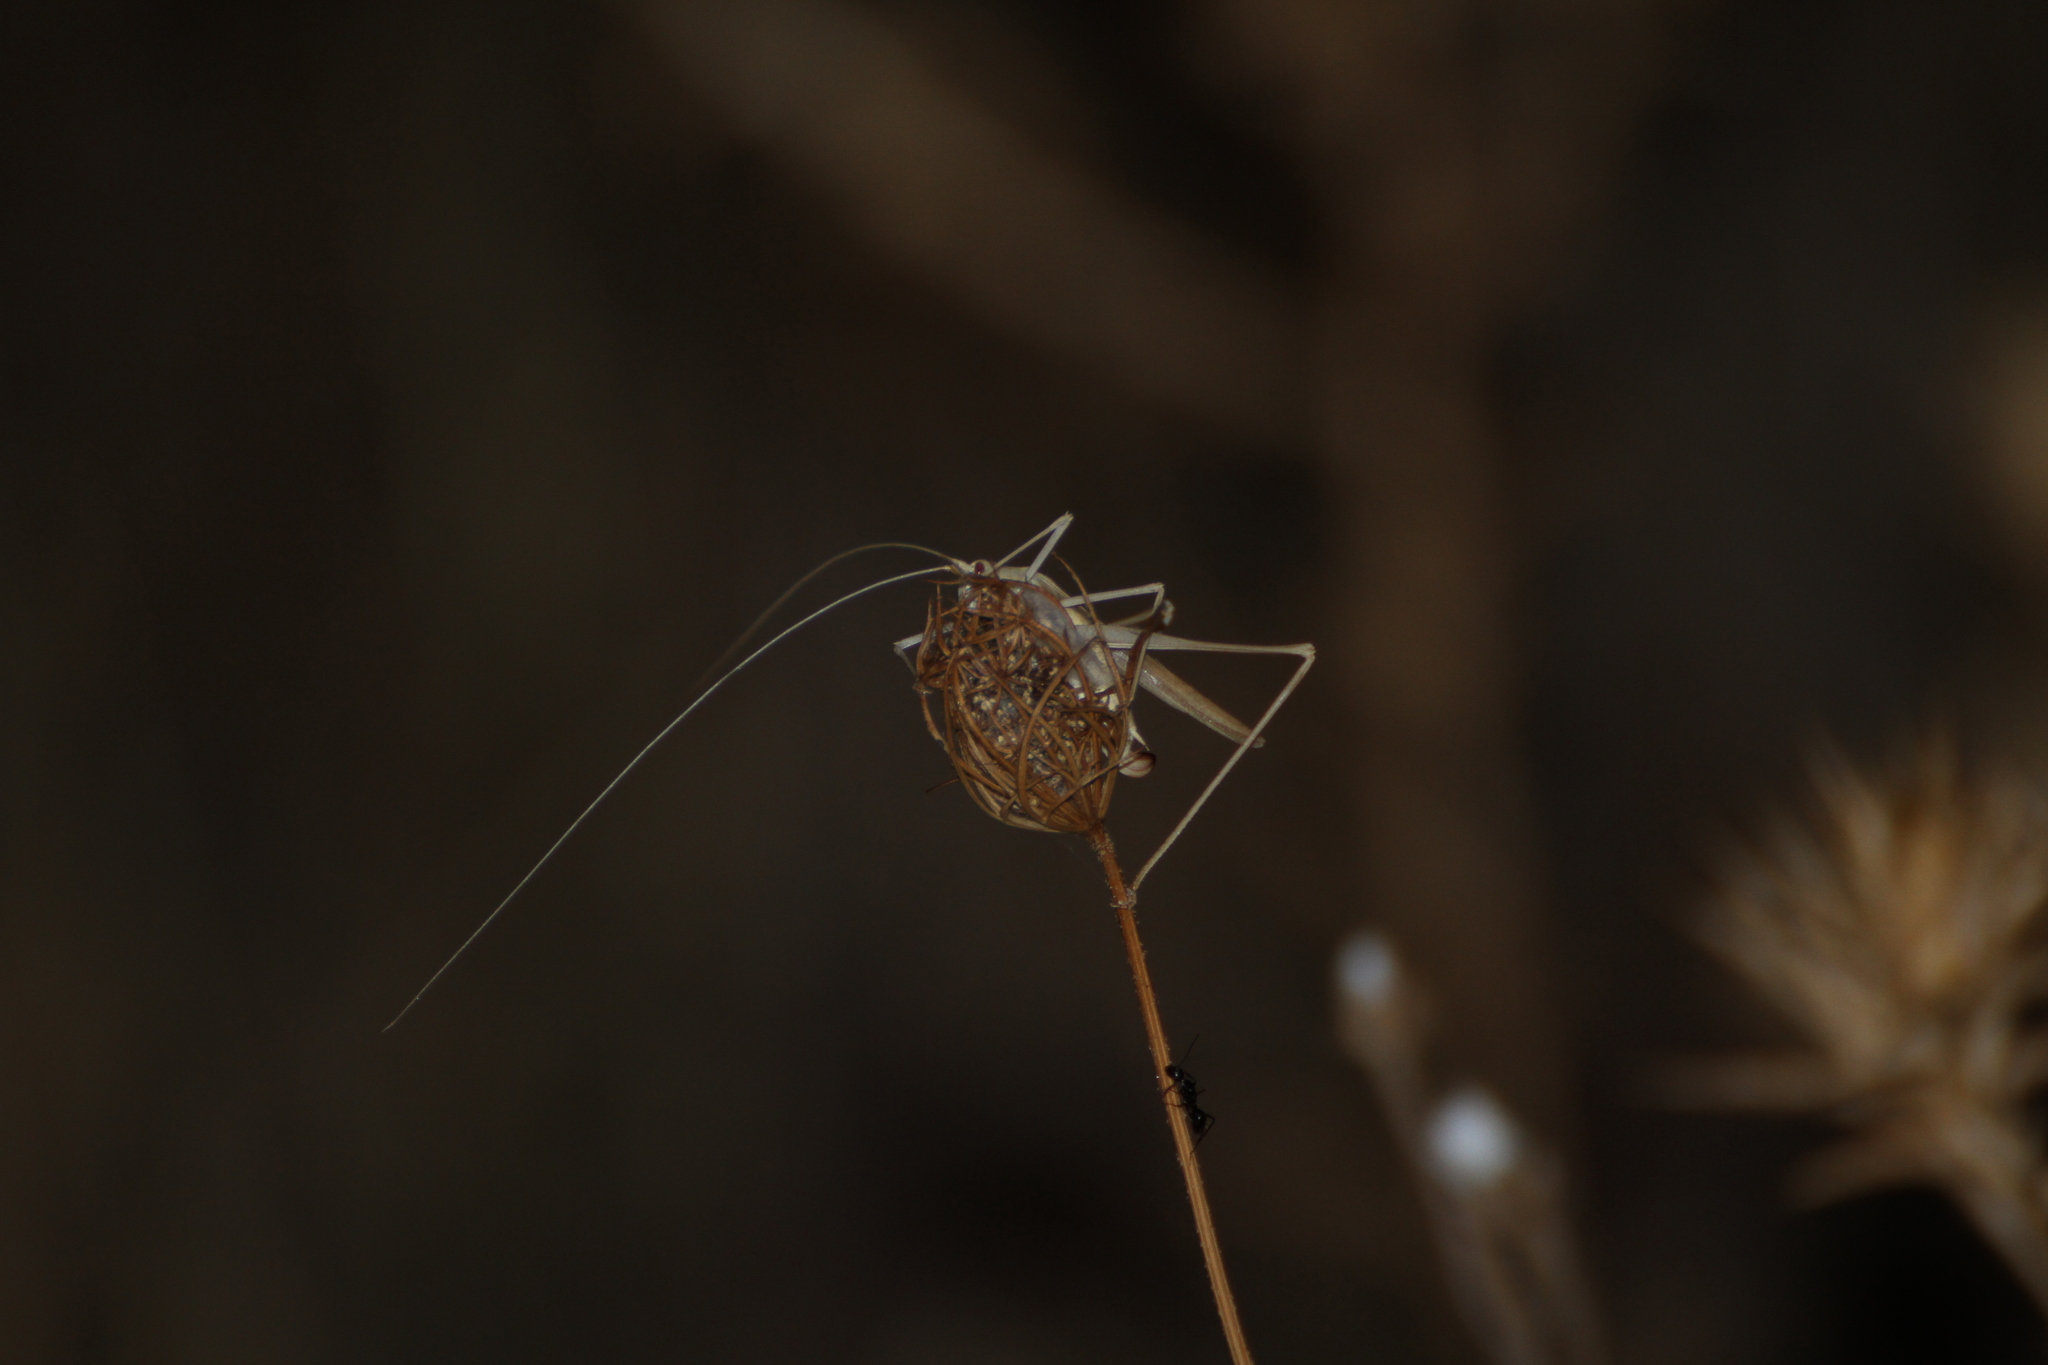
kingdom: Animalia
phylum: Arthropoda
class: Insecta
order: Orthoptera
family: Tettigoniidae
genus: Tylopsis
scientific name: Tylopsis lilifolia
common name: Lily bush-cricket
